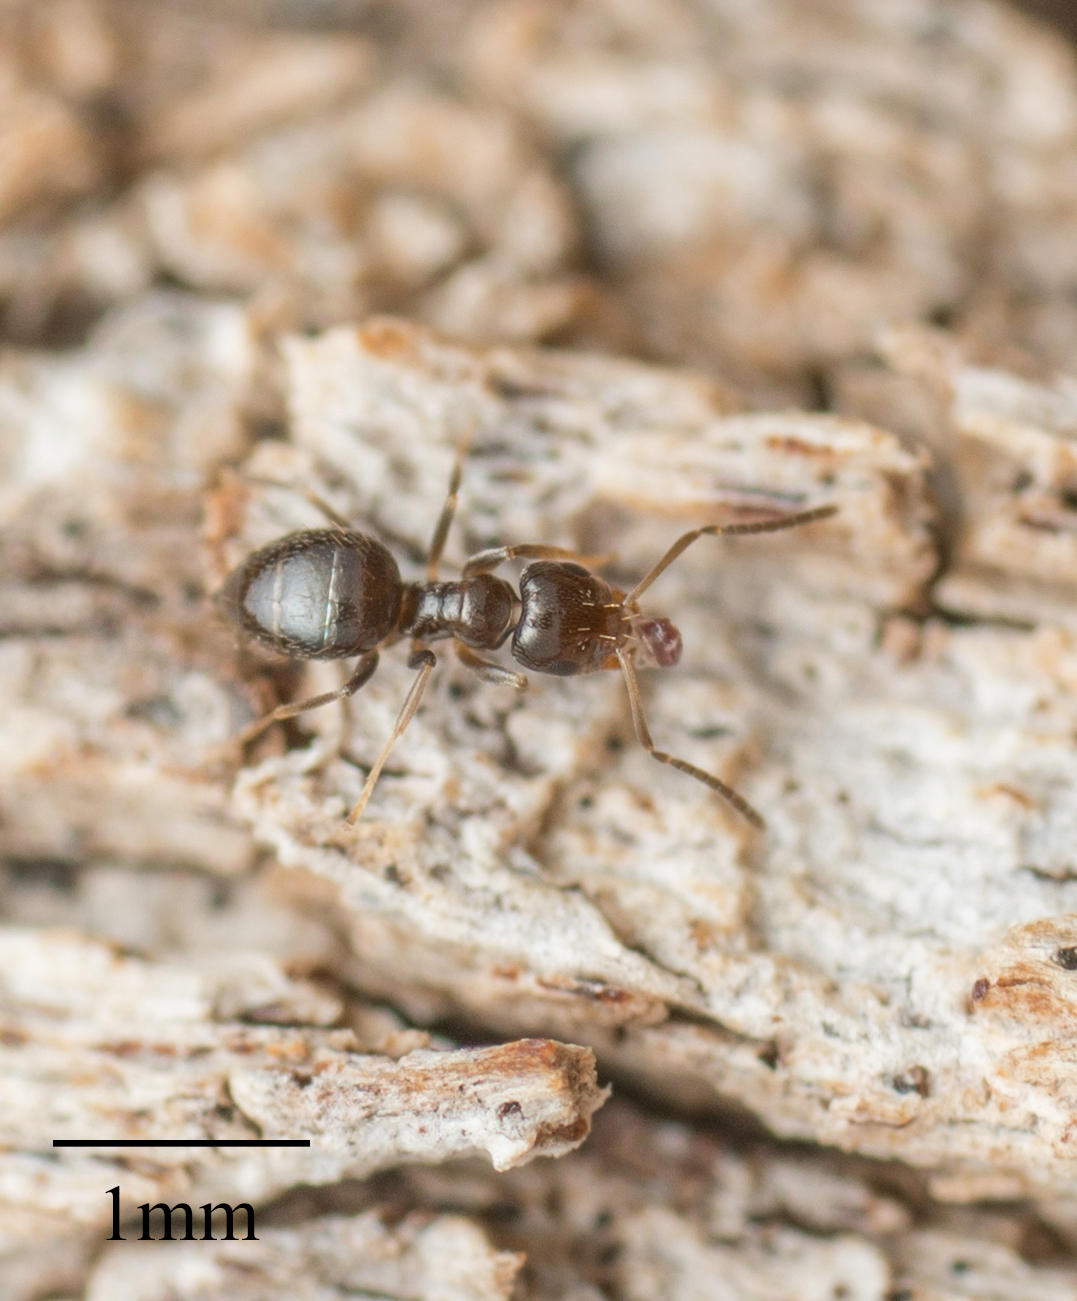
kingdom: Animalia
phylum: Arthropoda
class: Insecta
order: Hymenoptera
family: Formicidae
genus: Brachymyrmex
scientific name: Brachymyrmex patagonicus
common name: Dark rover ant
